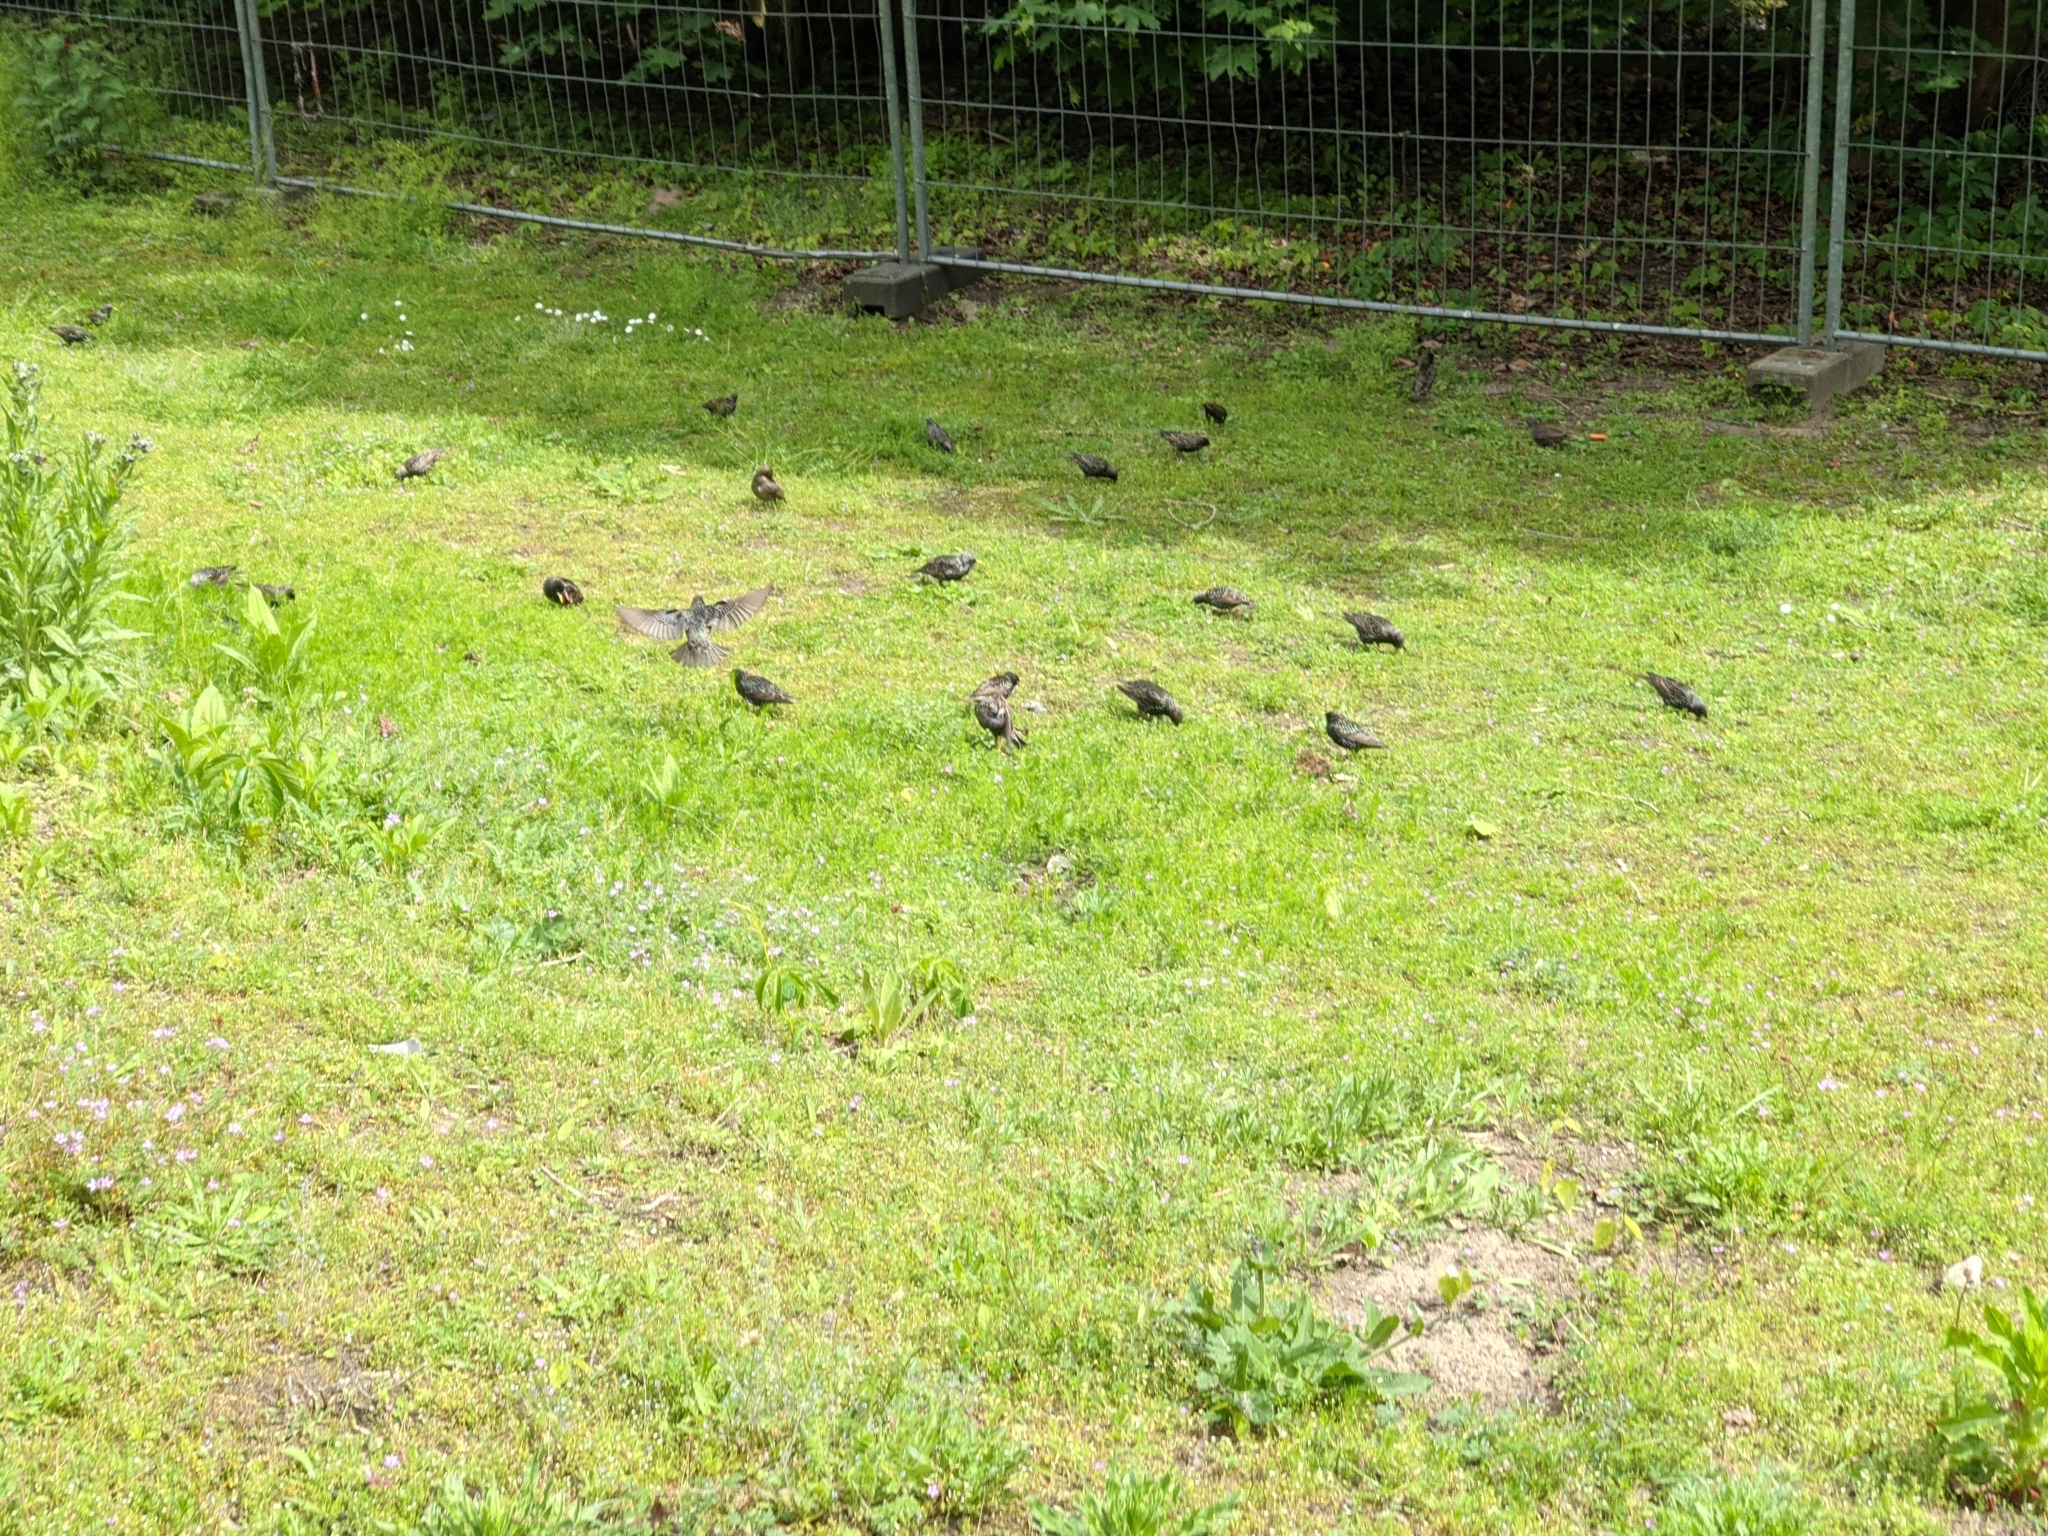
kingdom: Animalia
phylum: Chordata
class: Aves
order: Passeriformes
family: Sturnidae
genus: Sturnus
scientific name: Sturnus vulgaris
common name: Common starling
